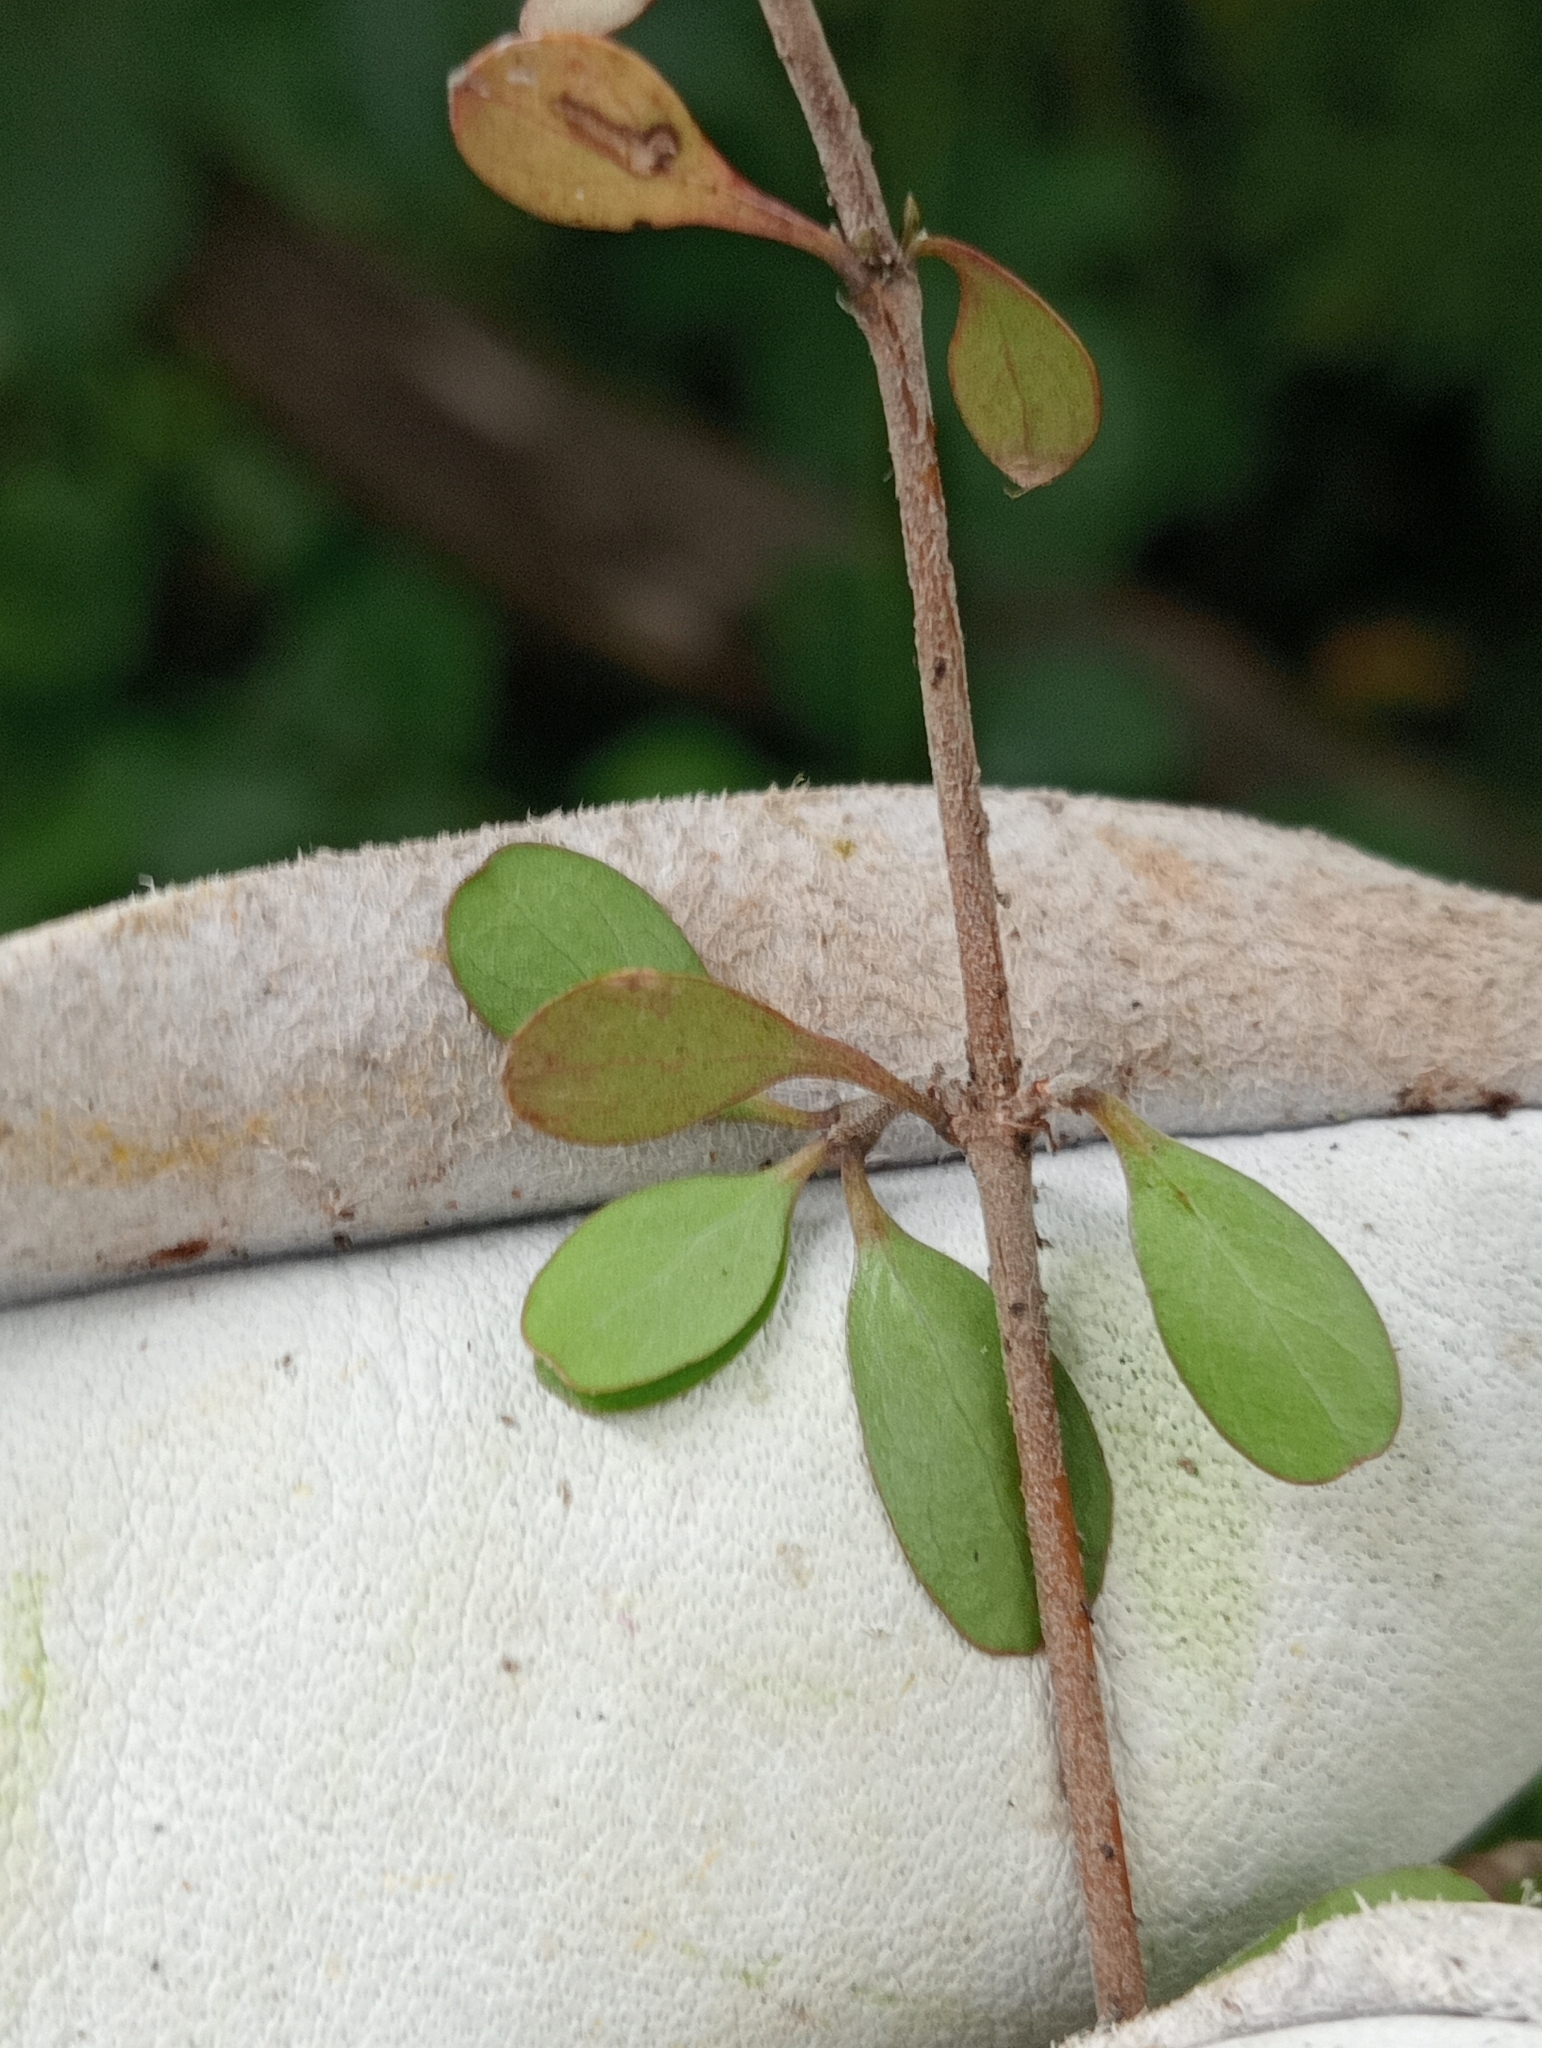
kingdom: Plantae
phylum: Tracheophyta
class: Magnoliopsida
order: Gentianales
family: Rubiaceae
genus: Coprosma
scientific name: Coprosma rigida
